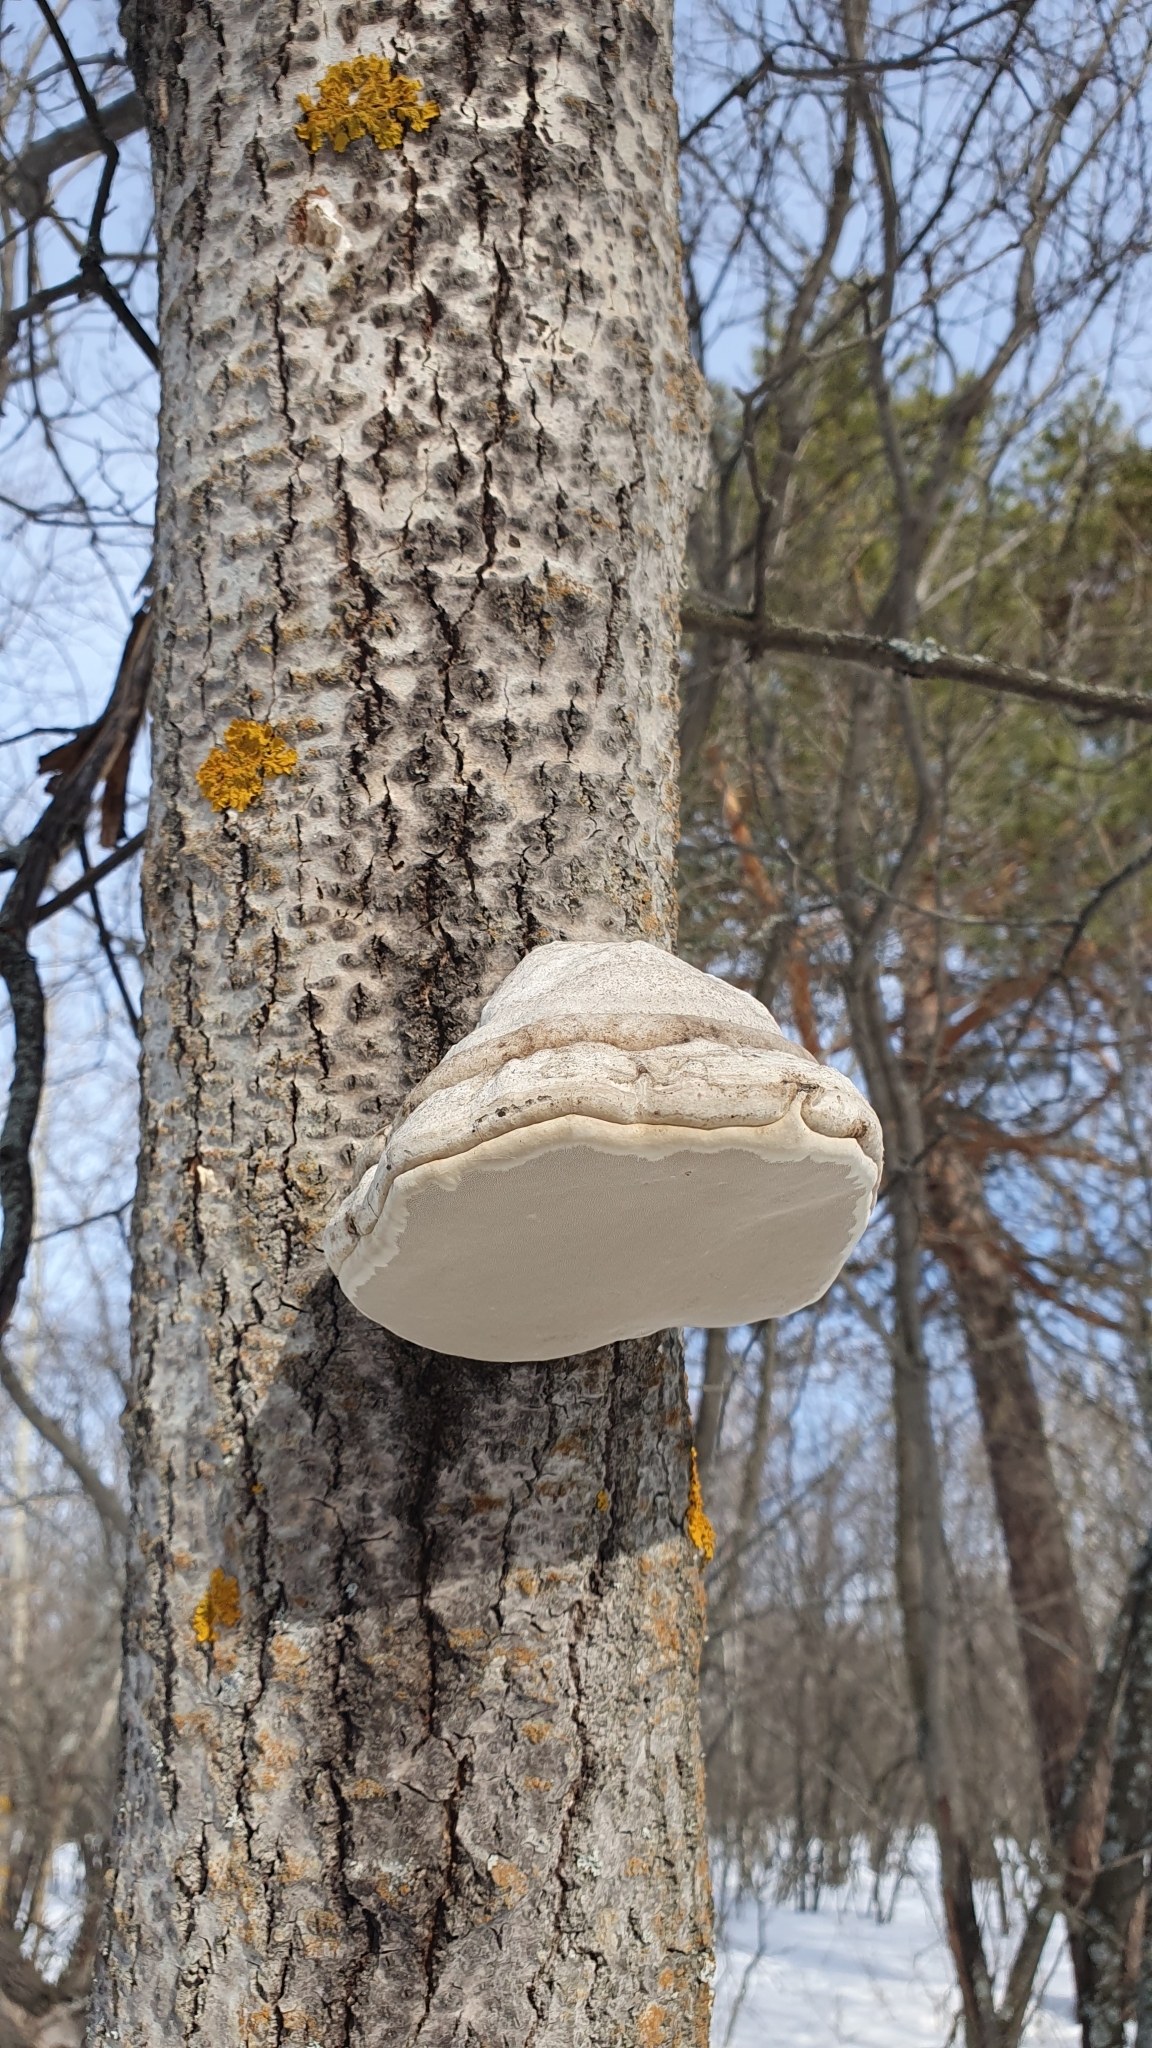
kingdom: Fungi
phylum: Basidiomycota
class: Agaricomycetes
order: Polyporales
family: Polyporaceae
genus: Fomes
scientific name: Fomes fomentarius
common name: Hoof fungus
